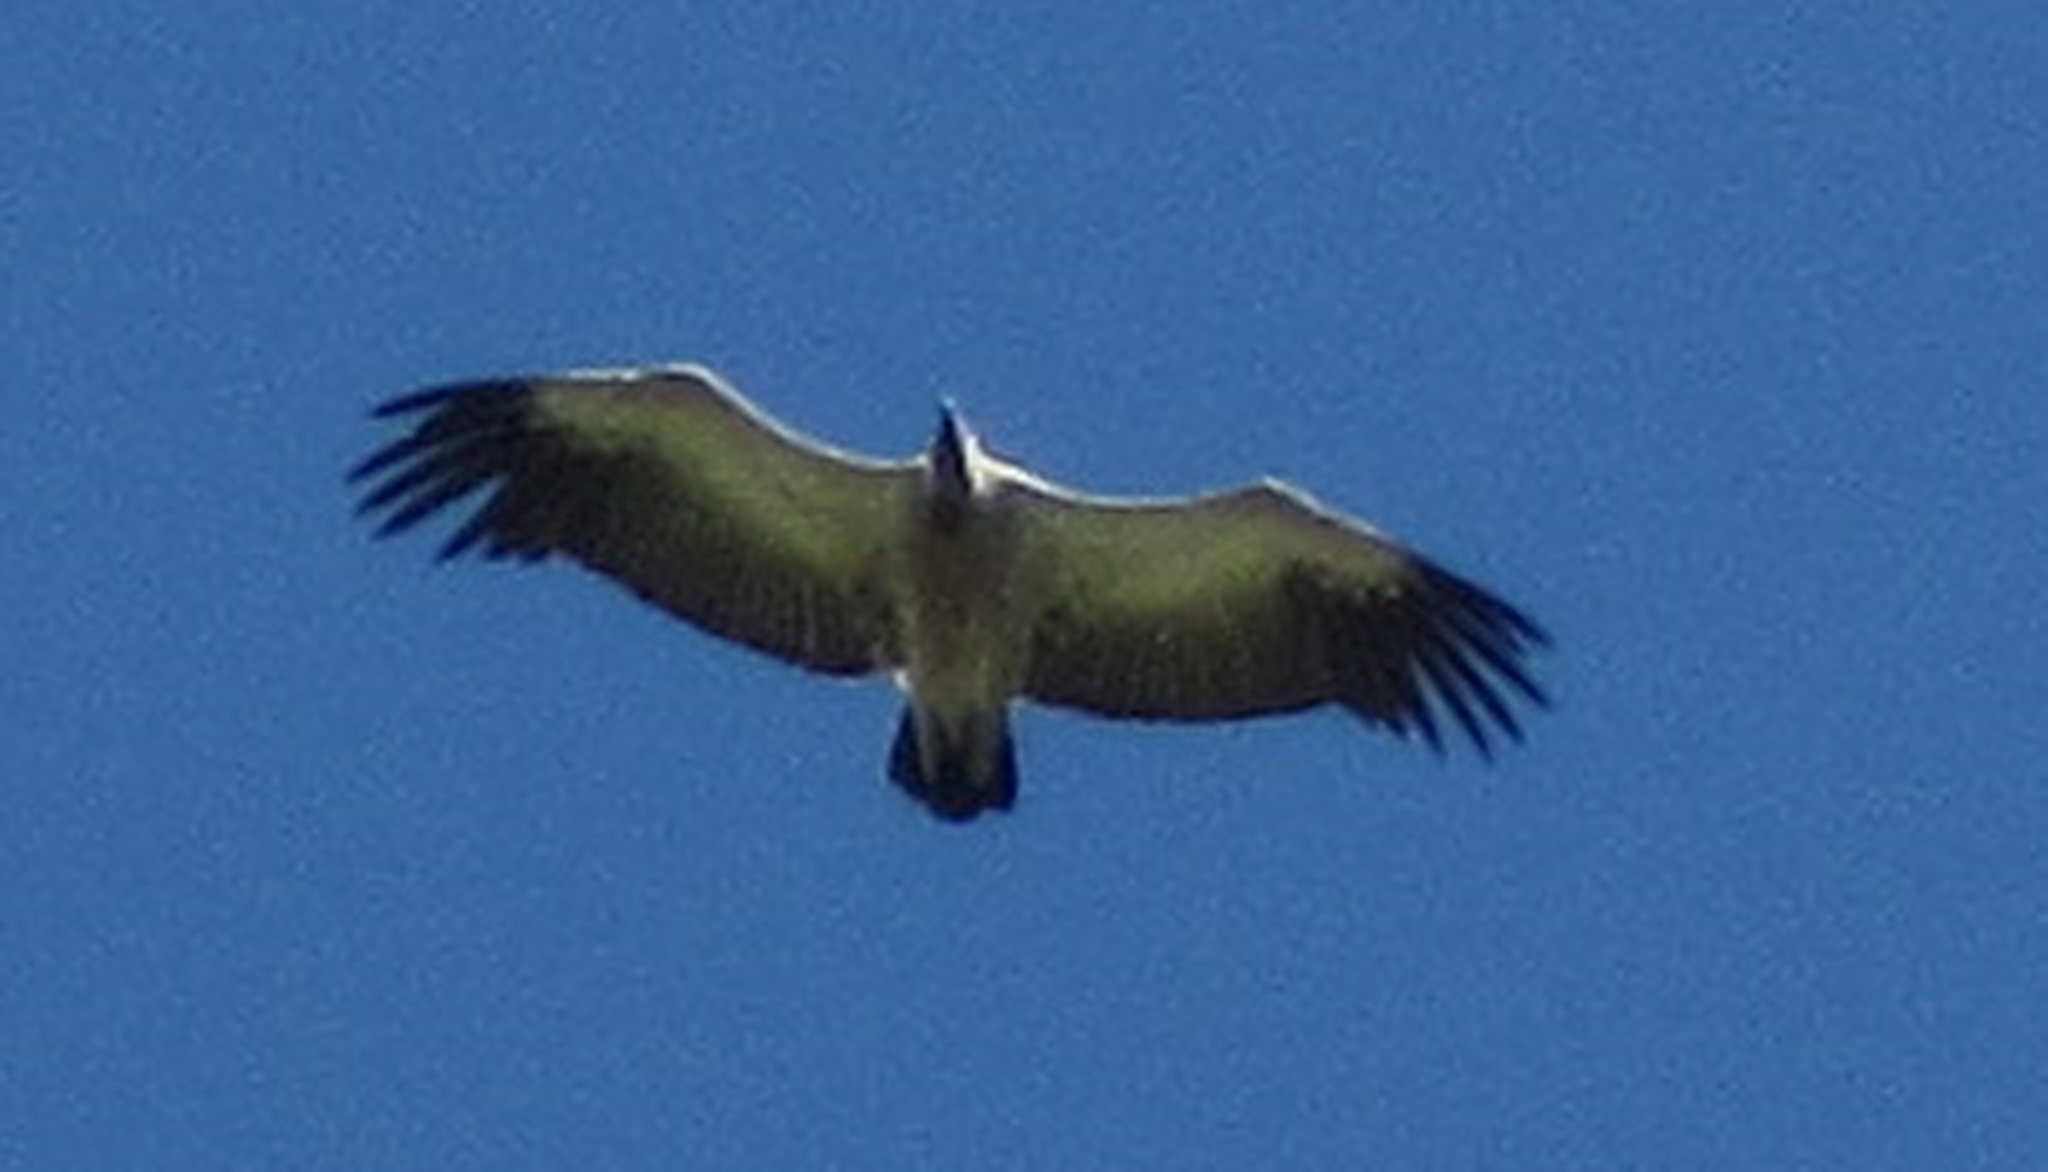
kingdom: Animalia
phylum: Chordata
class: Aves
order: Accipitriformes
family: Accipitridae
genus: Gyps
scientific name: Gyps coprotheres
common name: Cape vulture
